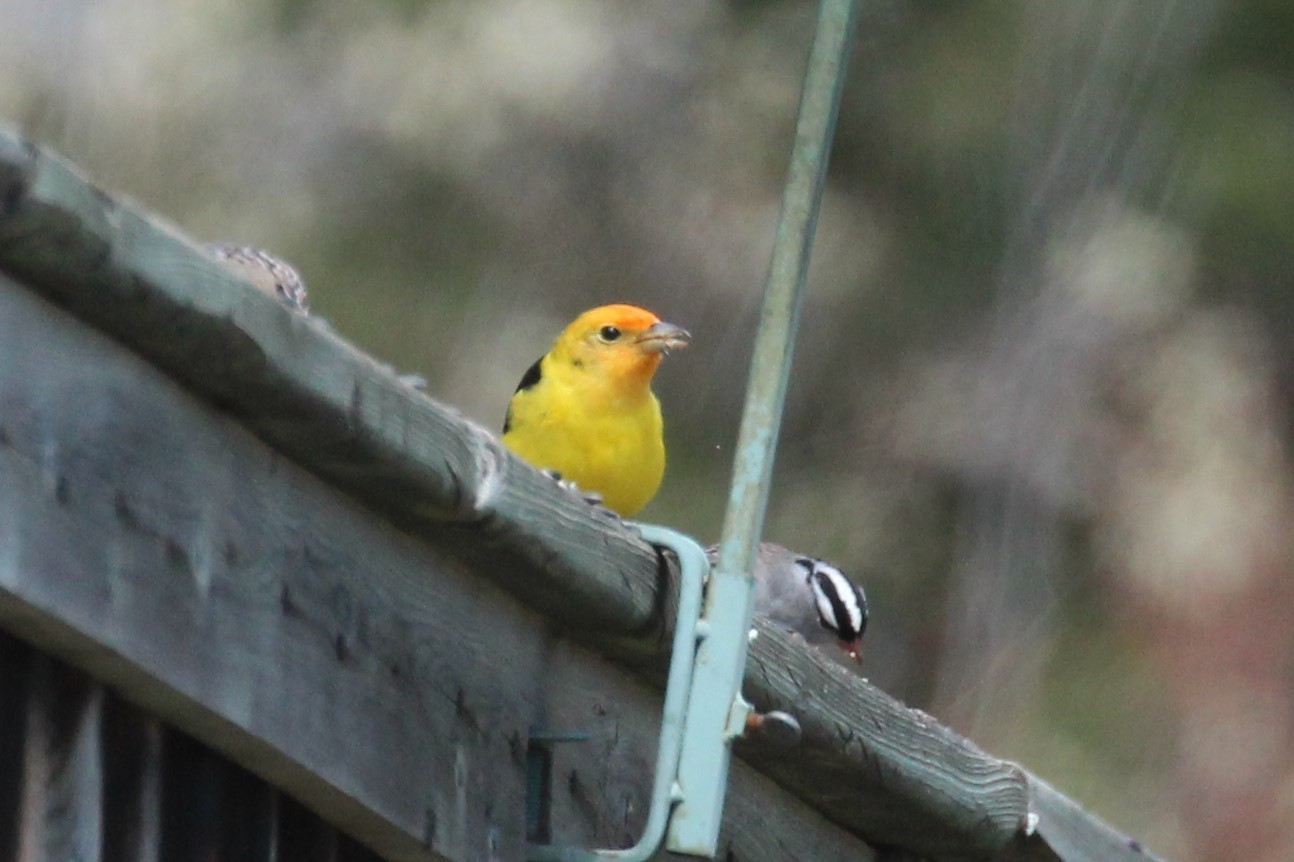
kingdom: Animalia
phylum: Chordata
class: Aves
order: Passeriformes
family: Cardinalidae
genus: Piranga
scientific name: Piranga ludoviciana
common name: Western tanager
